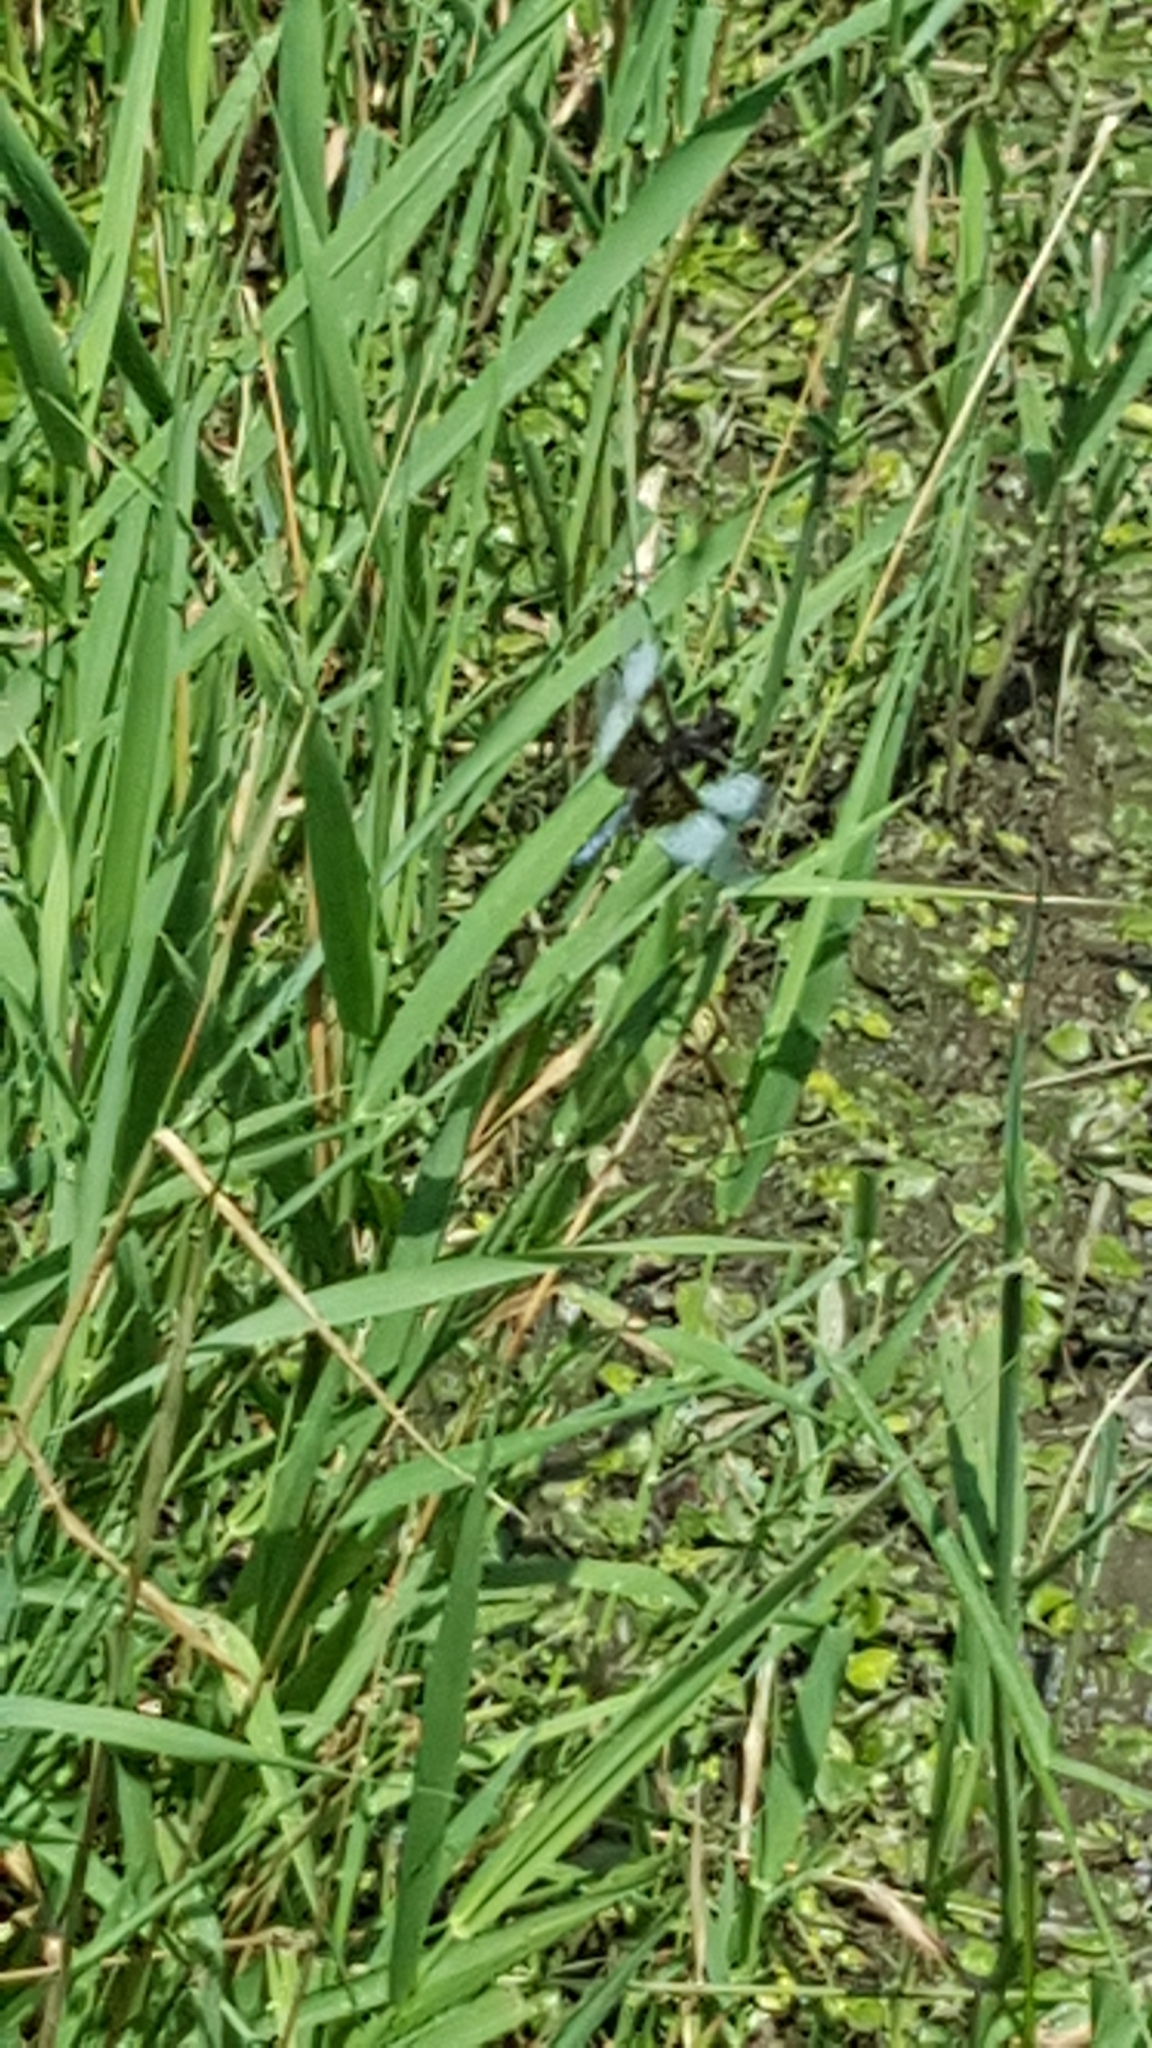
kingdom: Animalia
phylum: Arthropoda
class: Insecta
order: Odonata
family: Libellulidae
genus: Libellula
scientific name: Libellula luctuosa
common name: Widow skimmer
